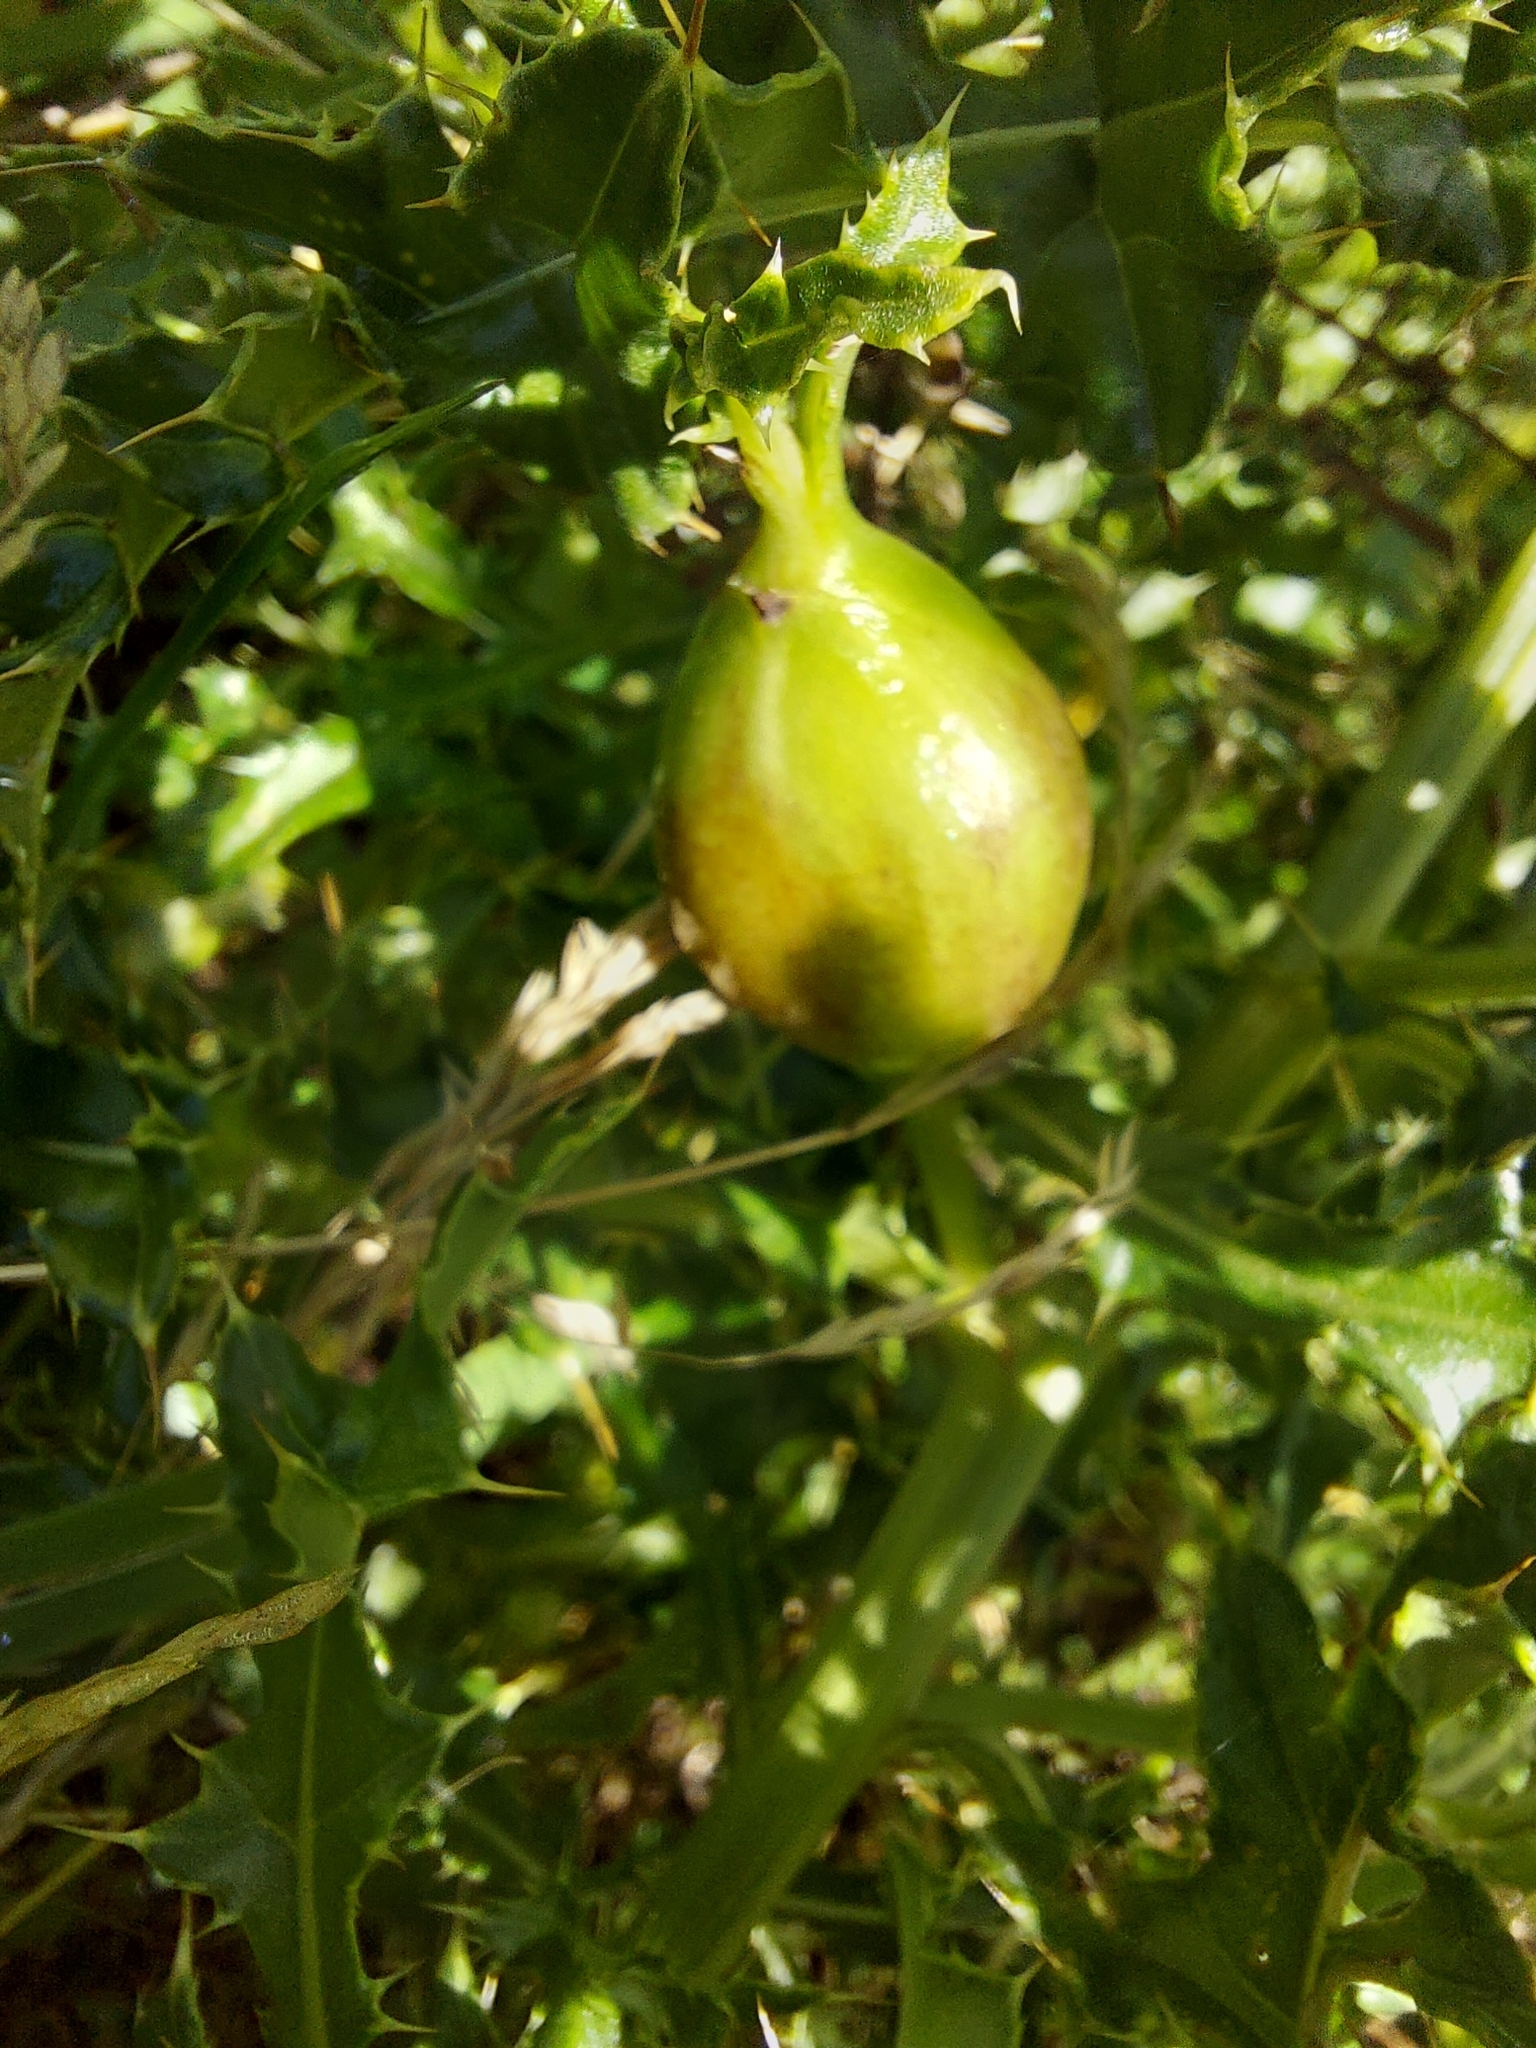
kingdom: Animalia
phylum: Arthropoda
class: Insecta
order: Diptera
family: Tephritidae
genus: Urophora
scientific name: Urophora cardui
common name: Fruit fly
